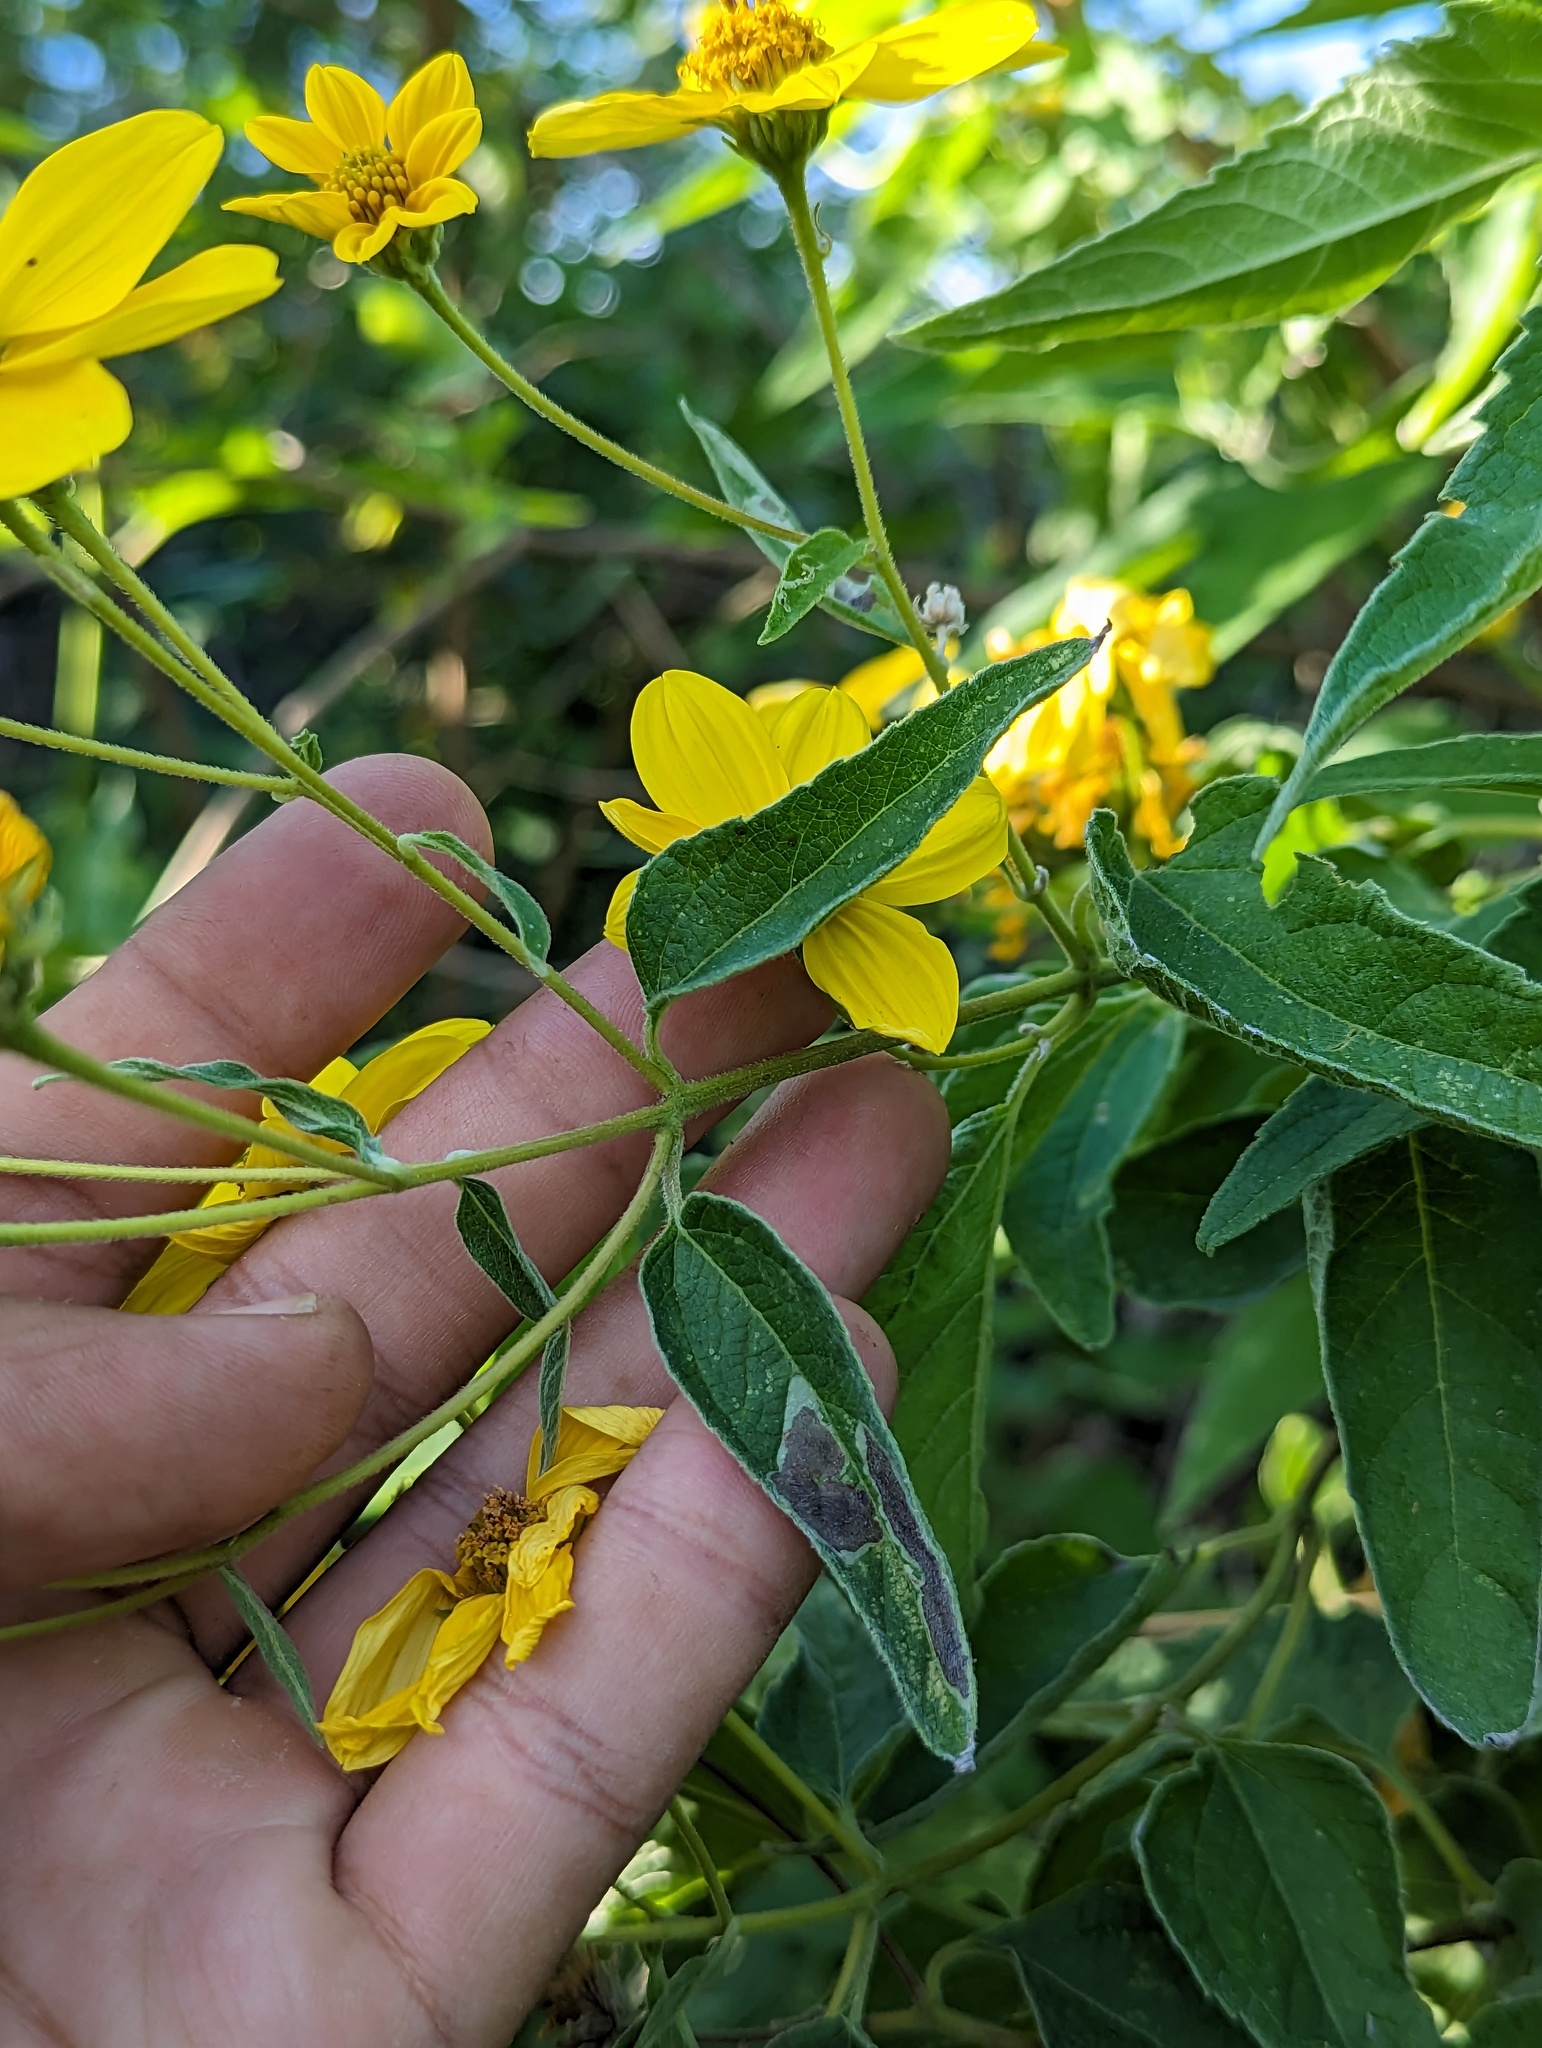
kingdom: Plantae
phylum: Tracheophyta
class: Magnoliopsida
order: Asterales
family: Asteraceae
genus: Bahiopsis
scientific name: Bahiopsis tomentosa
